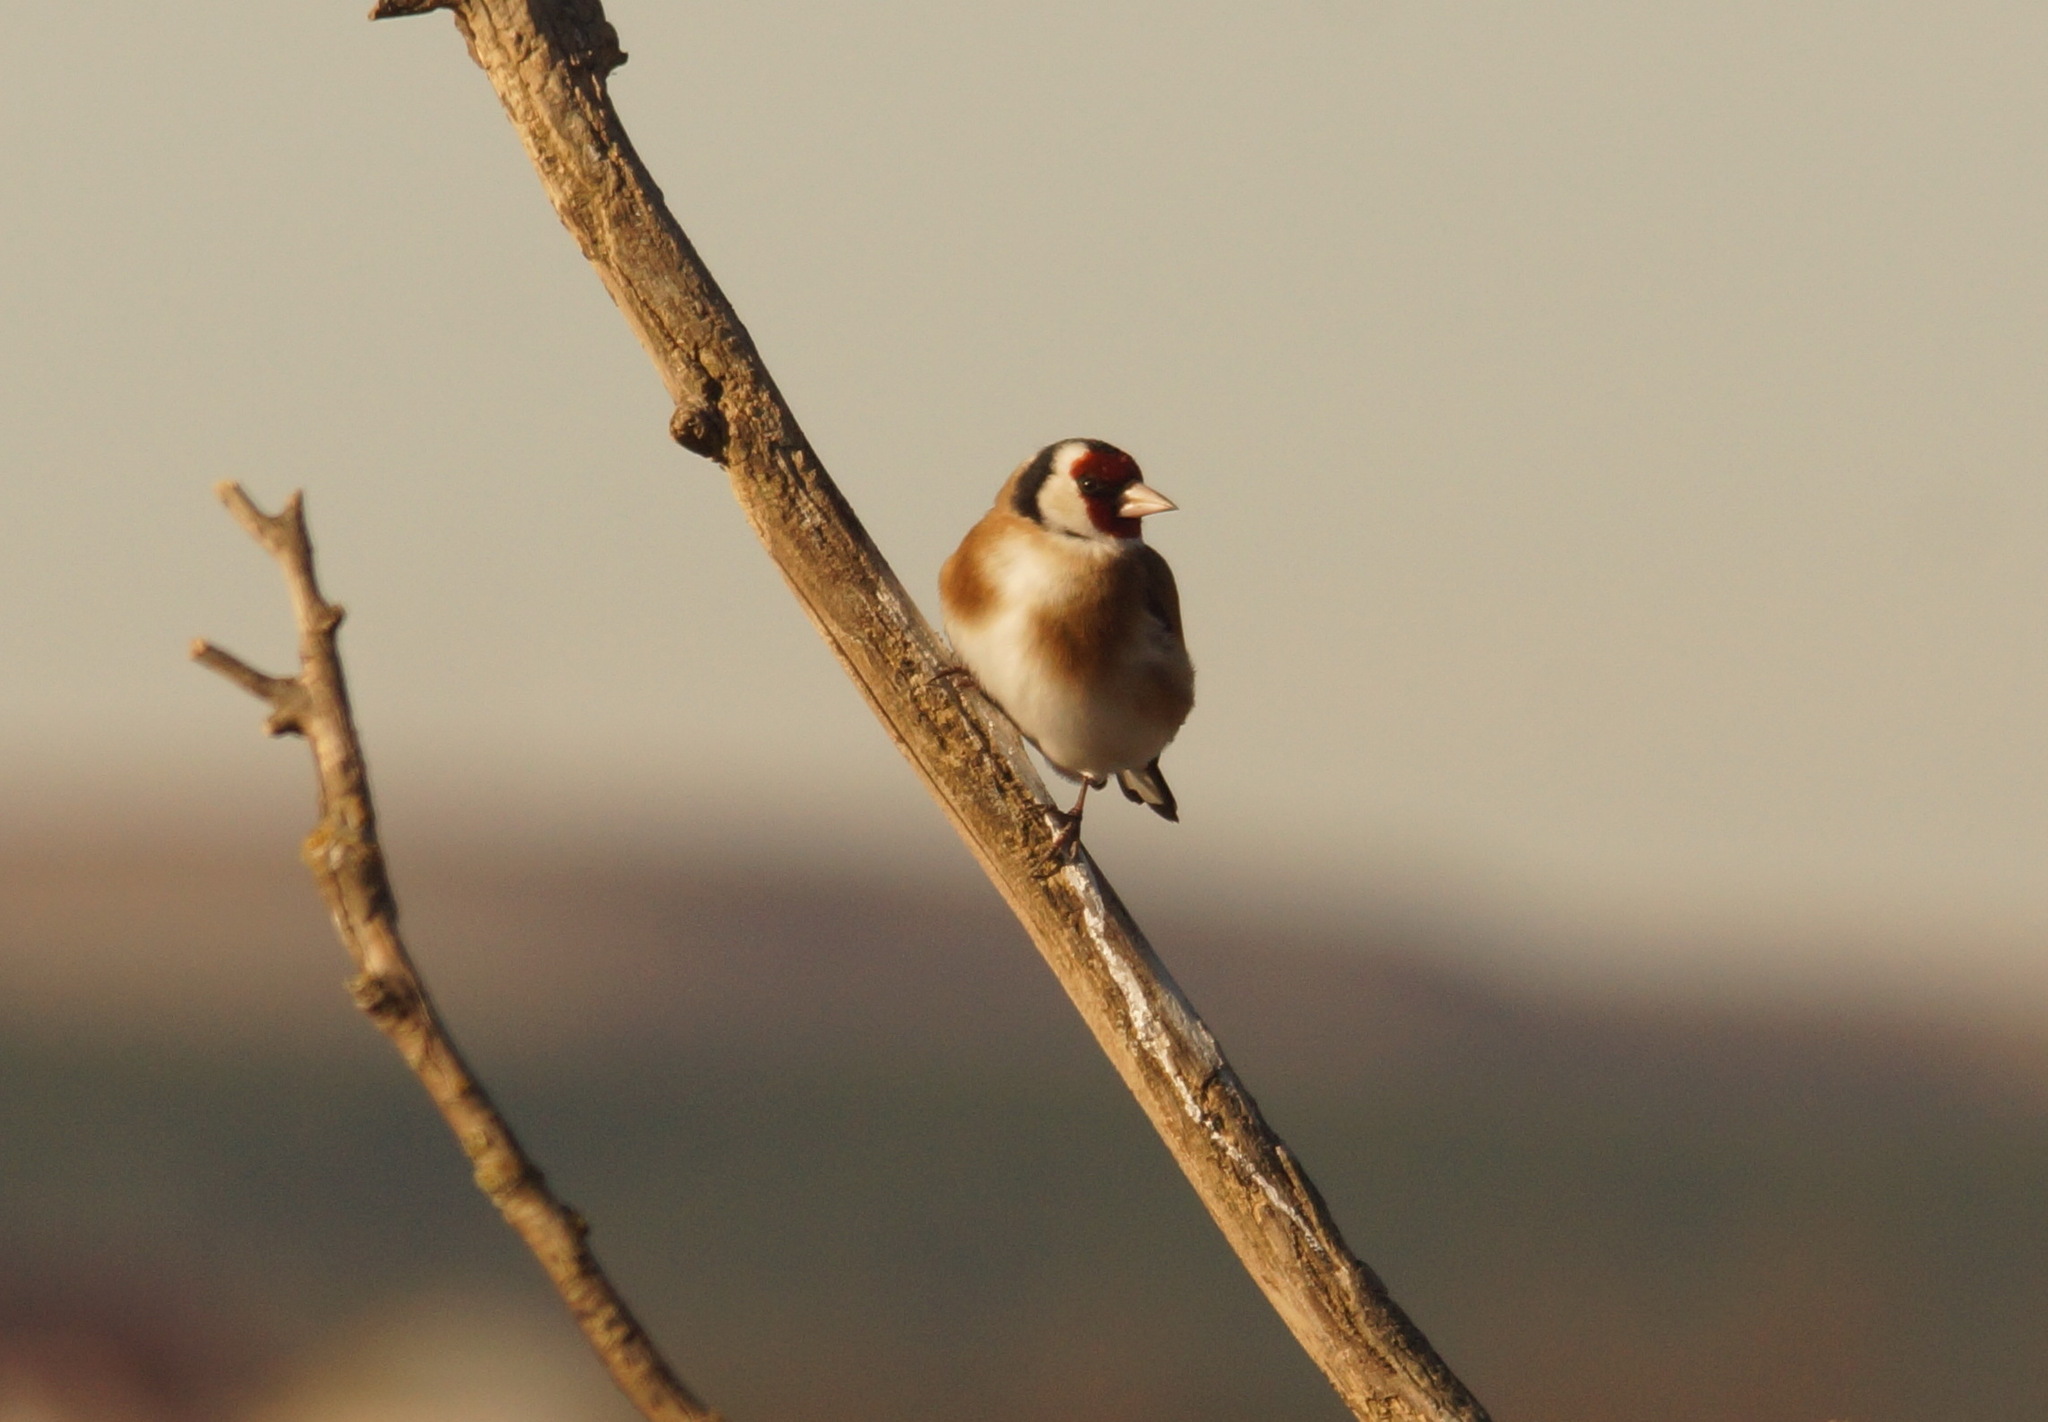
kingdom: Animalia
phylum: Chordata
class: Aves
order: Passeriformes
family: Fringillidae
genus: Carduelis
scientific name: Carduelis carduelis
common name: European goldfinch
